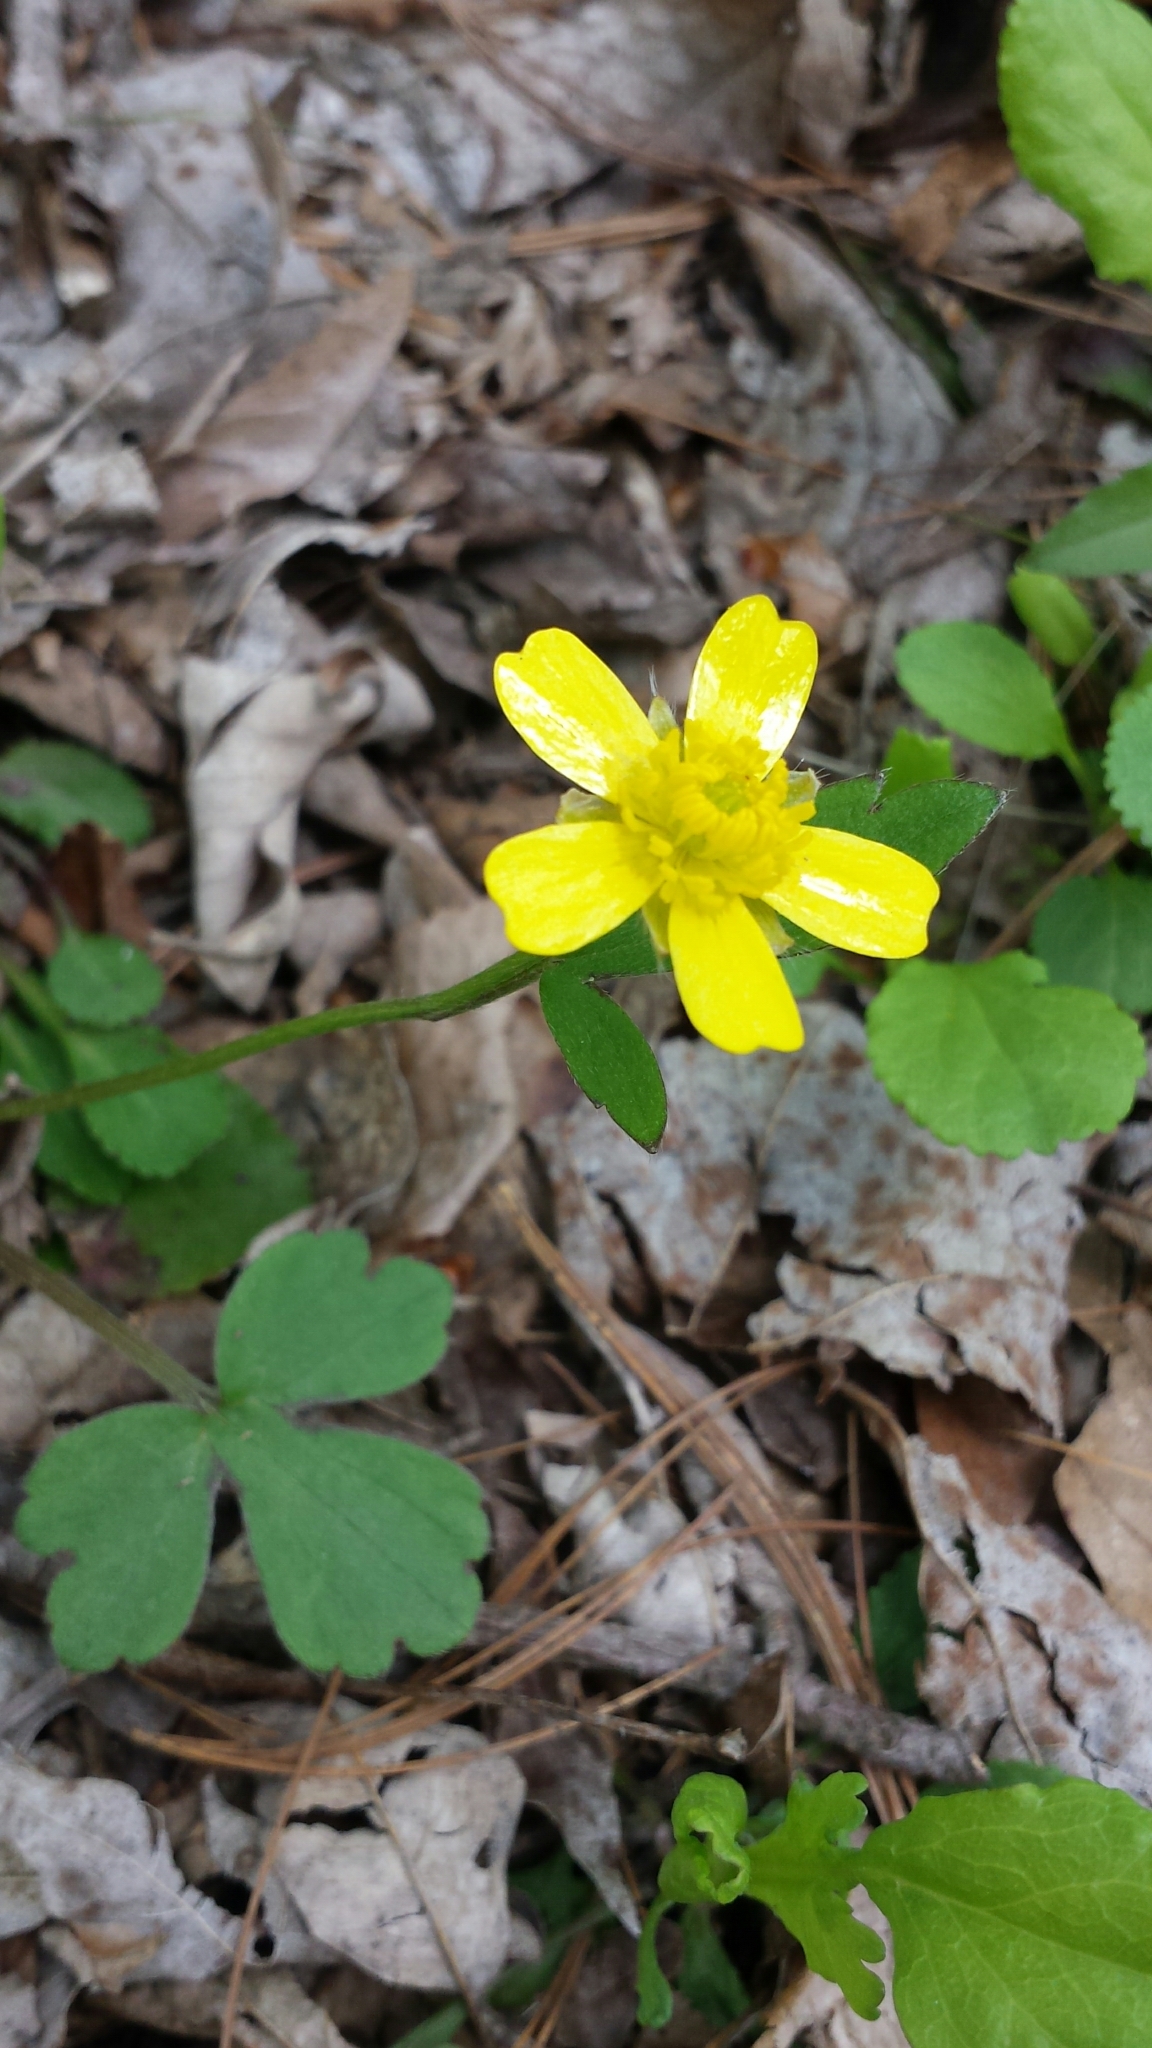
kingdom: Plantae
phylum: Tracheophyta
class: Magnoliopsida
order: Ranunculales
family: Ranunculaceae
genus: Ranunculus
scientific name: Ranunculus hispidus
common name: Bristly buttercup
